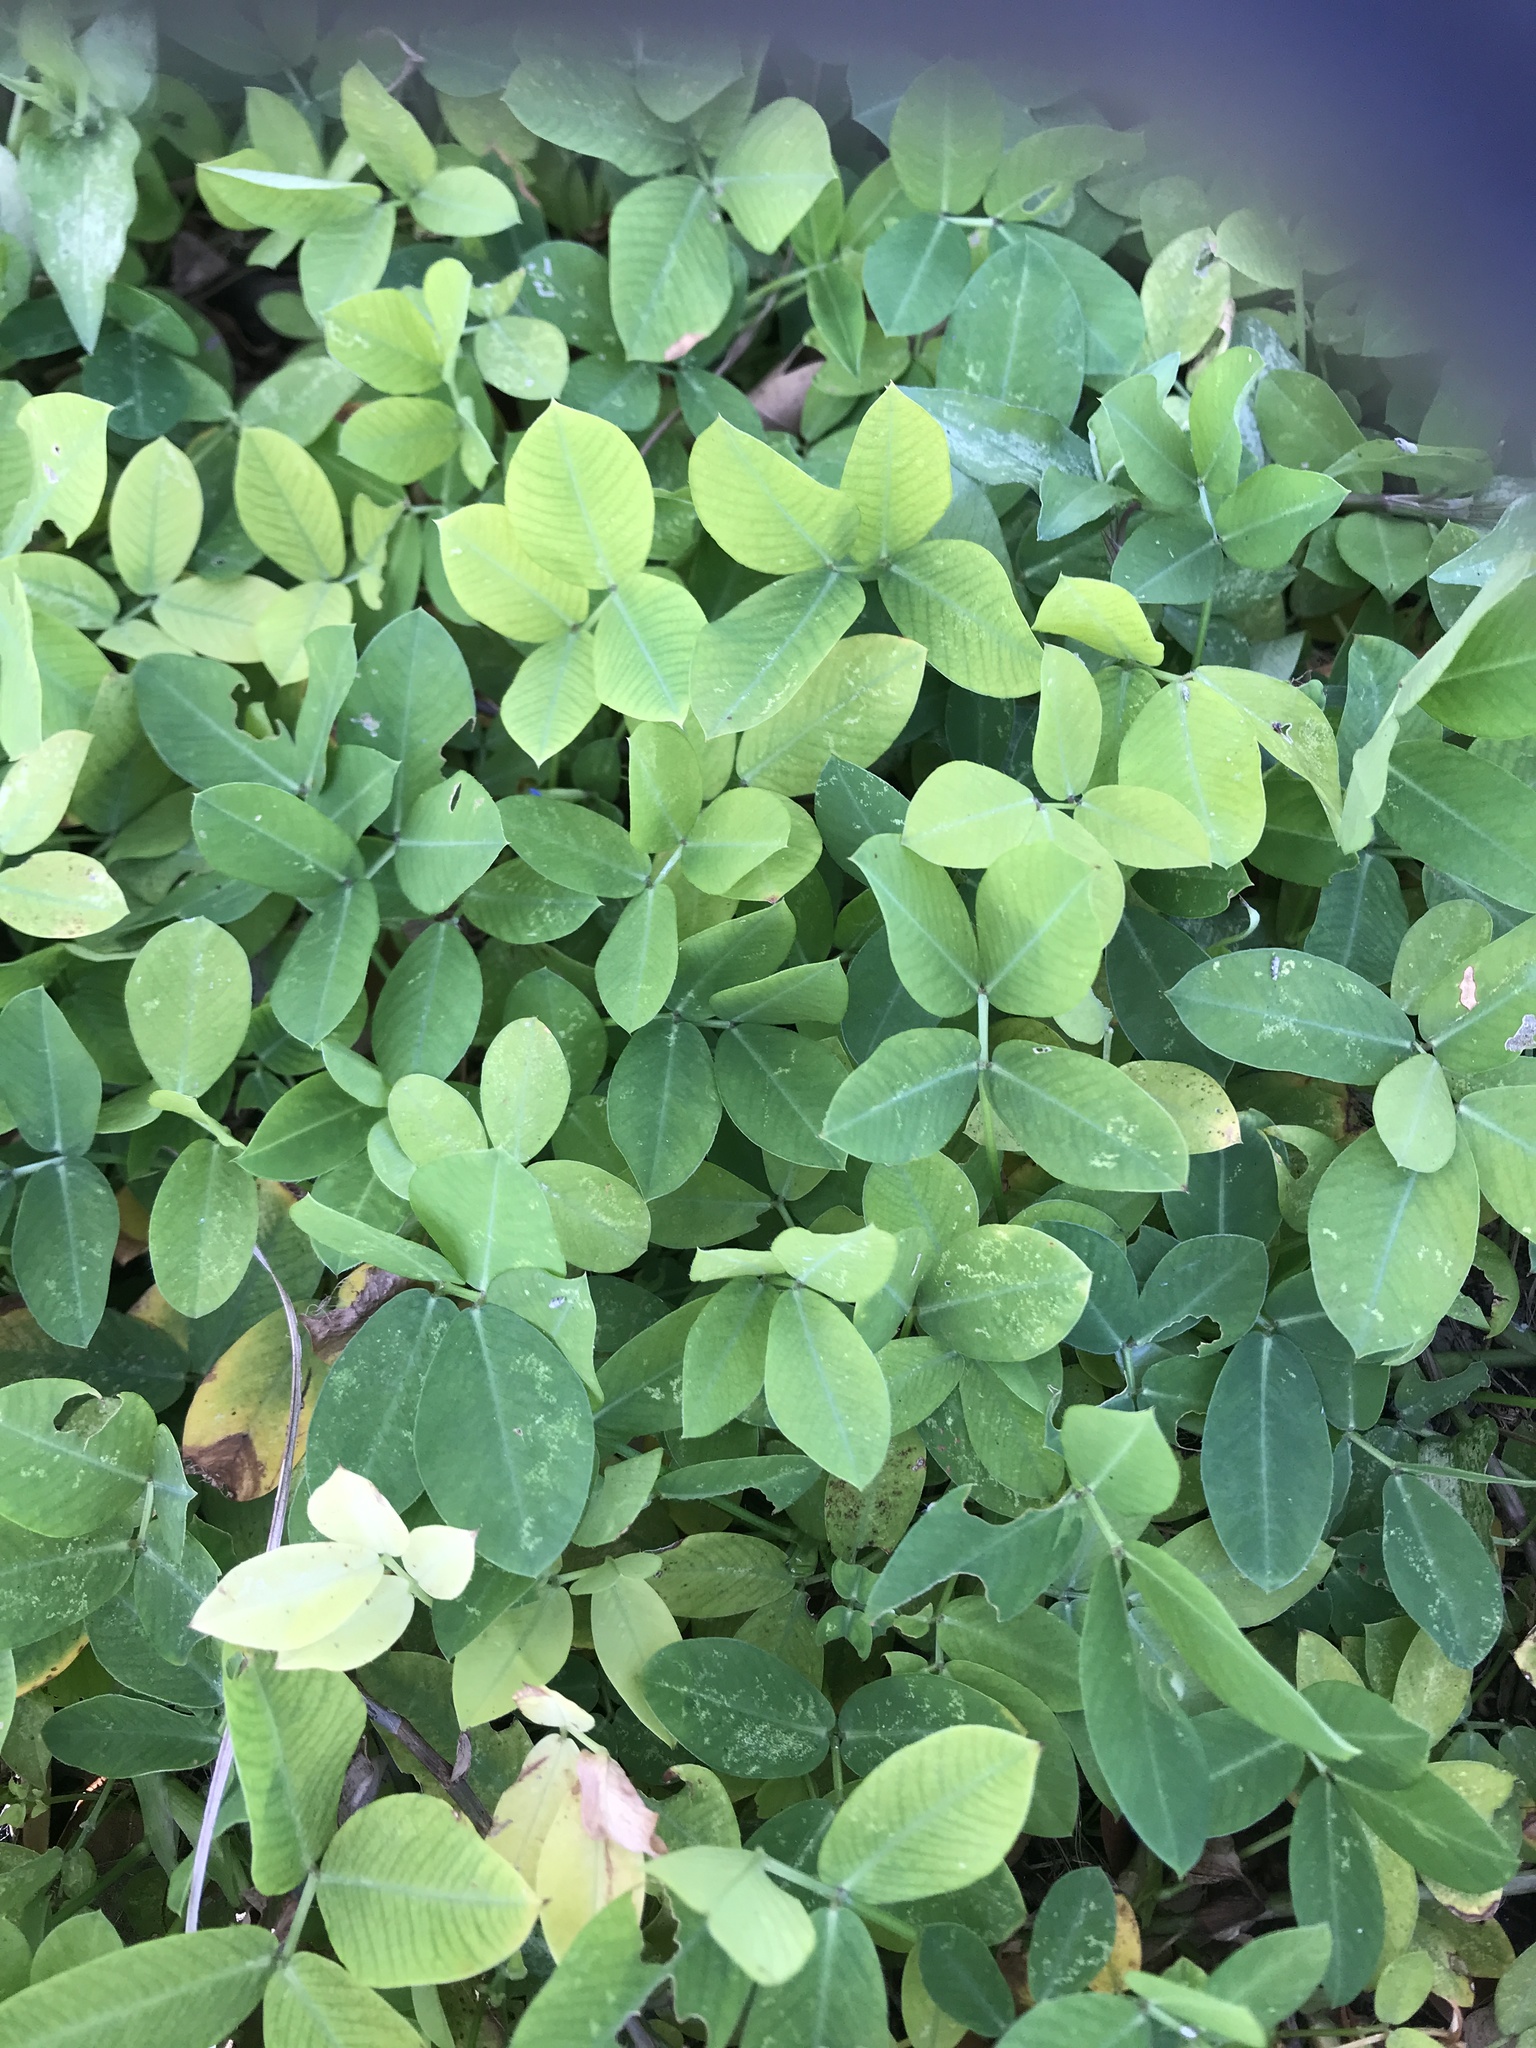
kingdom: Plantae
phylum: Tracheophyta
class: Magnoliopsida
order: Fabales
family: Fabaceae
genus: Arachis
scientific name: Arachis pintoi
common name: Pinto peanut
